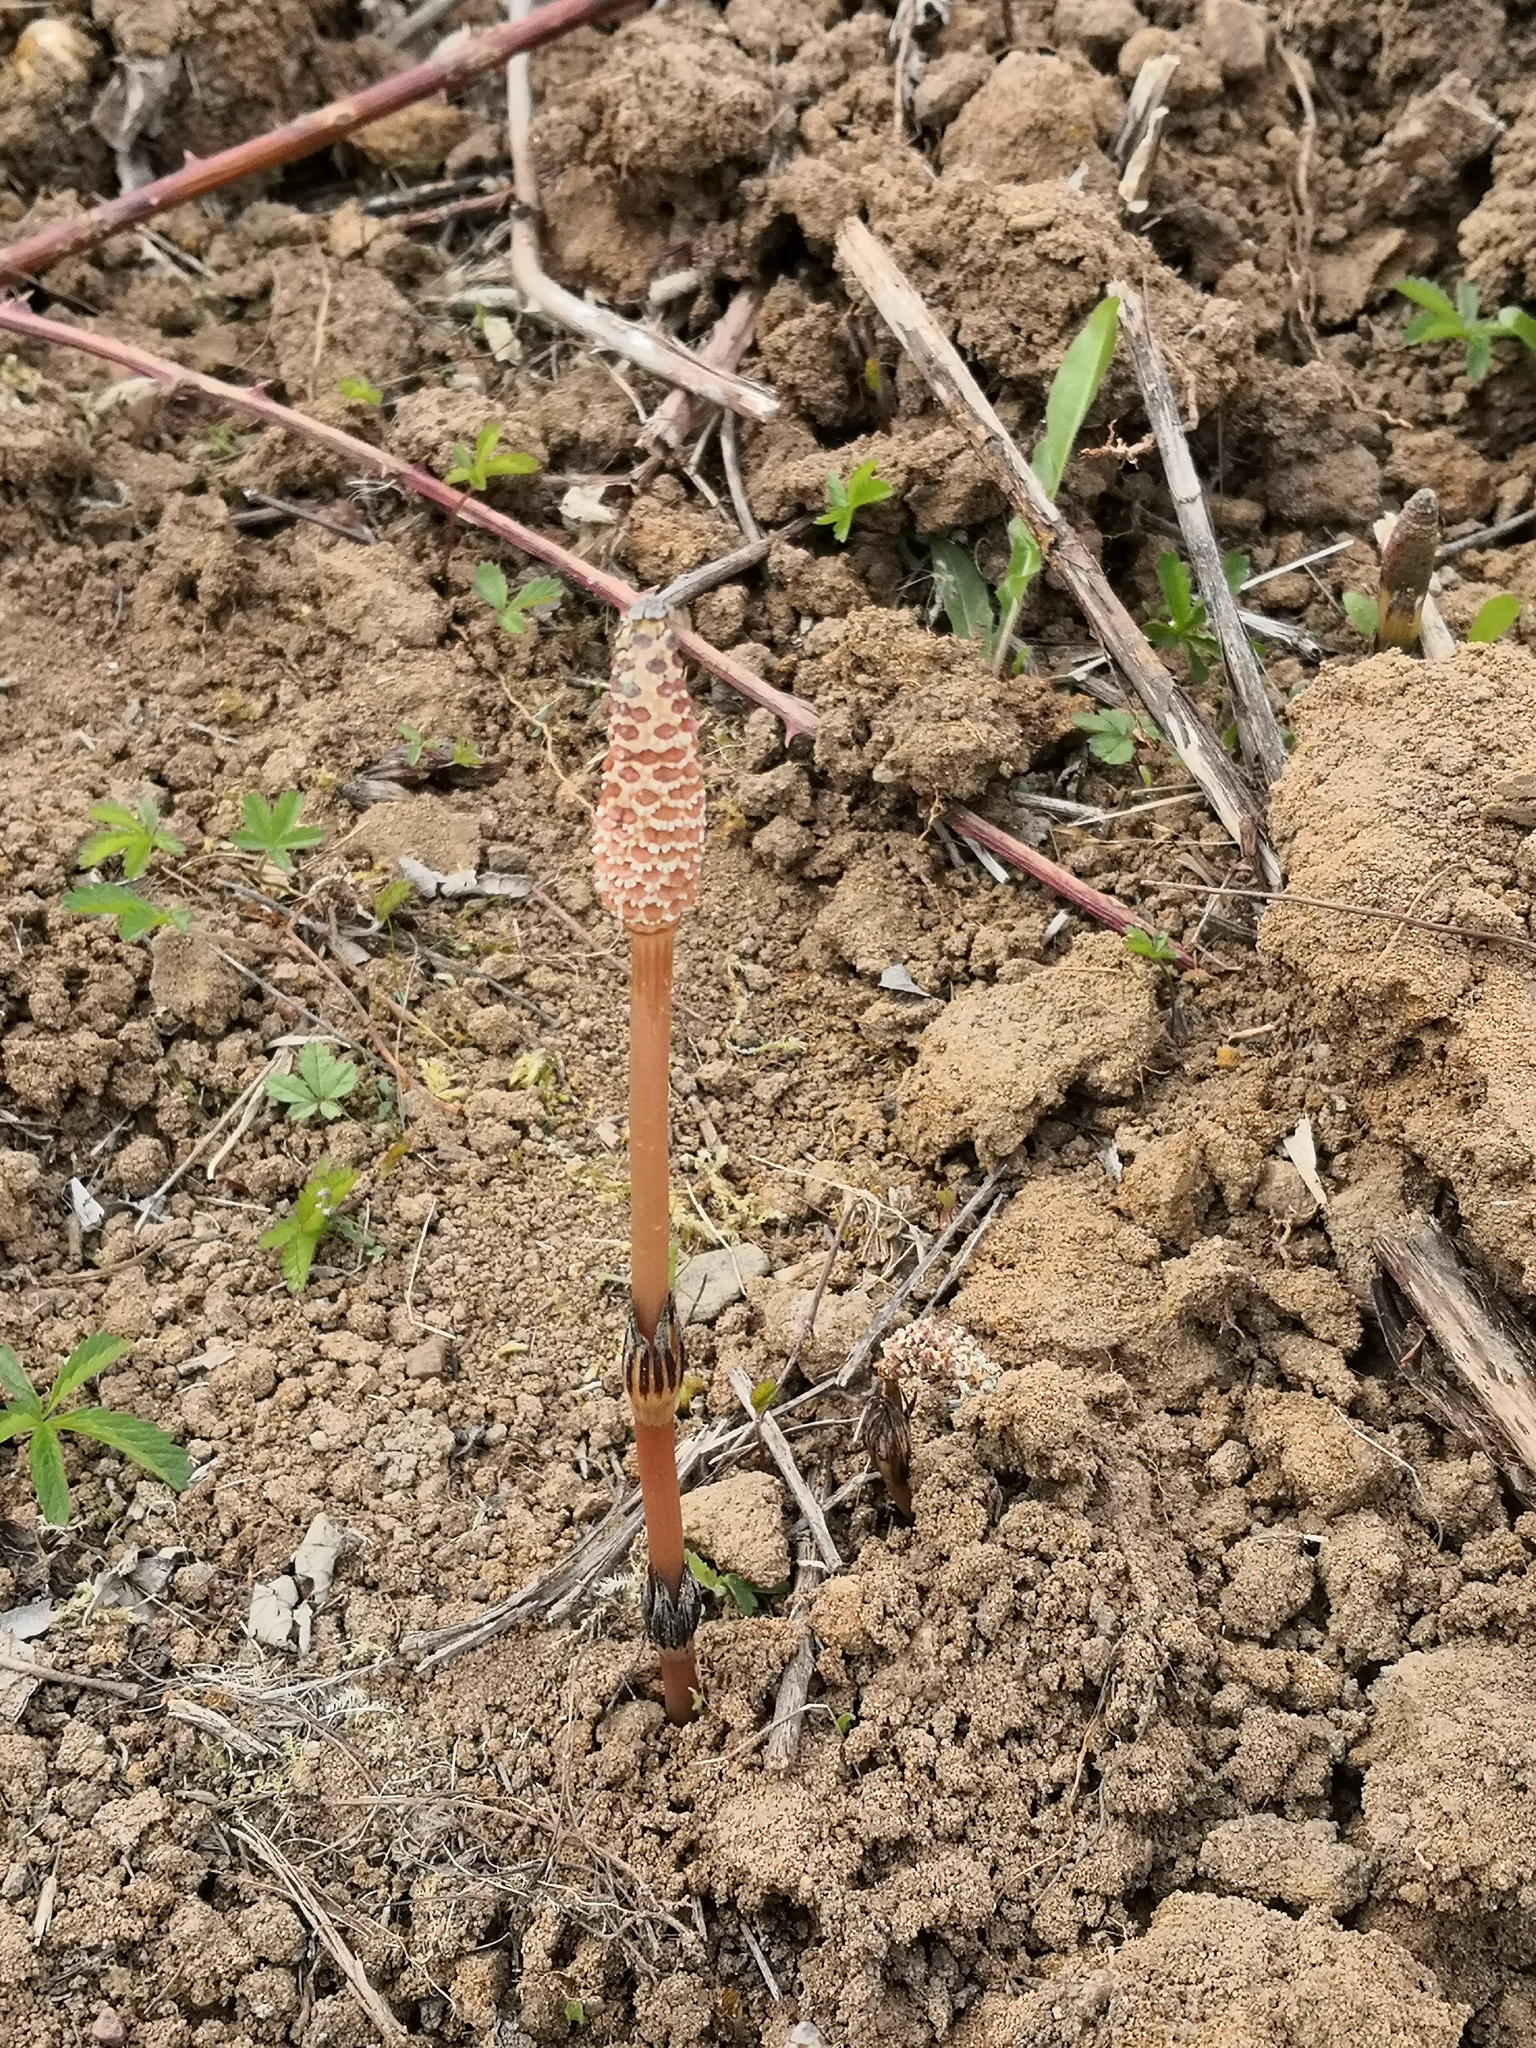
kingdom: Plantae
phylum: Tracheophyta
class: Polypodiopsida
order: Equisetales
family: Equisetaceae
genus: Equisetum
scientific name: Equisetum arvense
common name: Field horsetail
